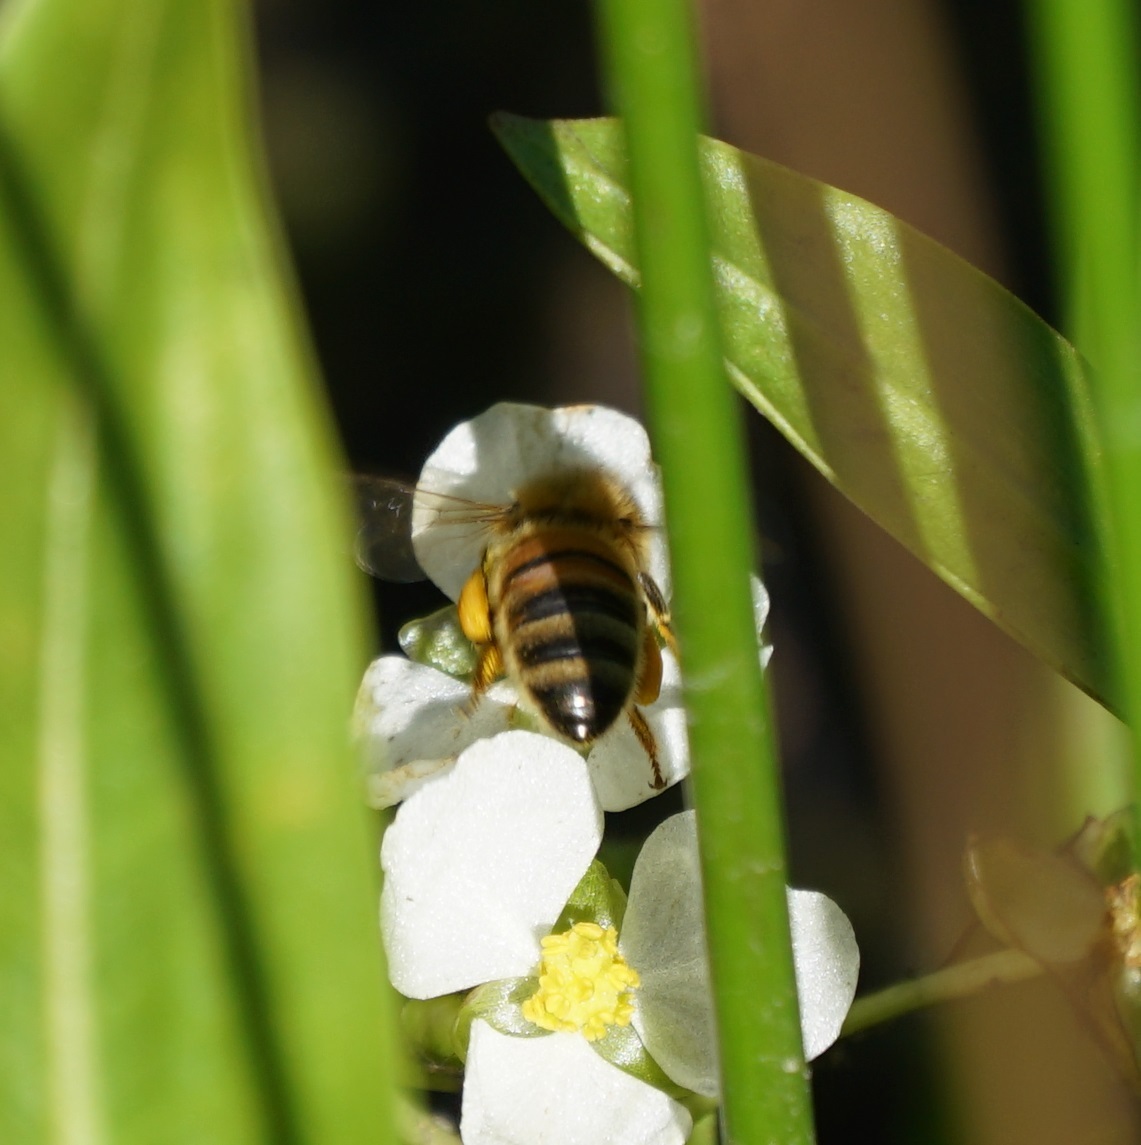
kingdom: Animalia
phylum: Arthropoda
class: Insecta
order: Hymenoptera
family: Apidae
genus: Apis
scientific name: Apis mellifera
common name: Honey bee
